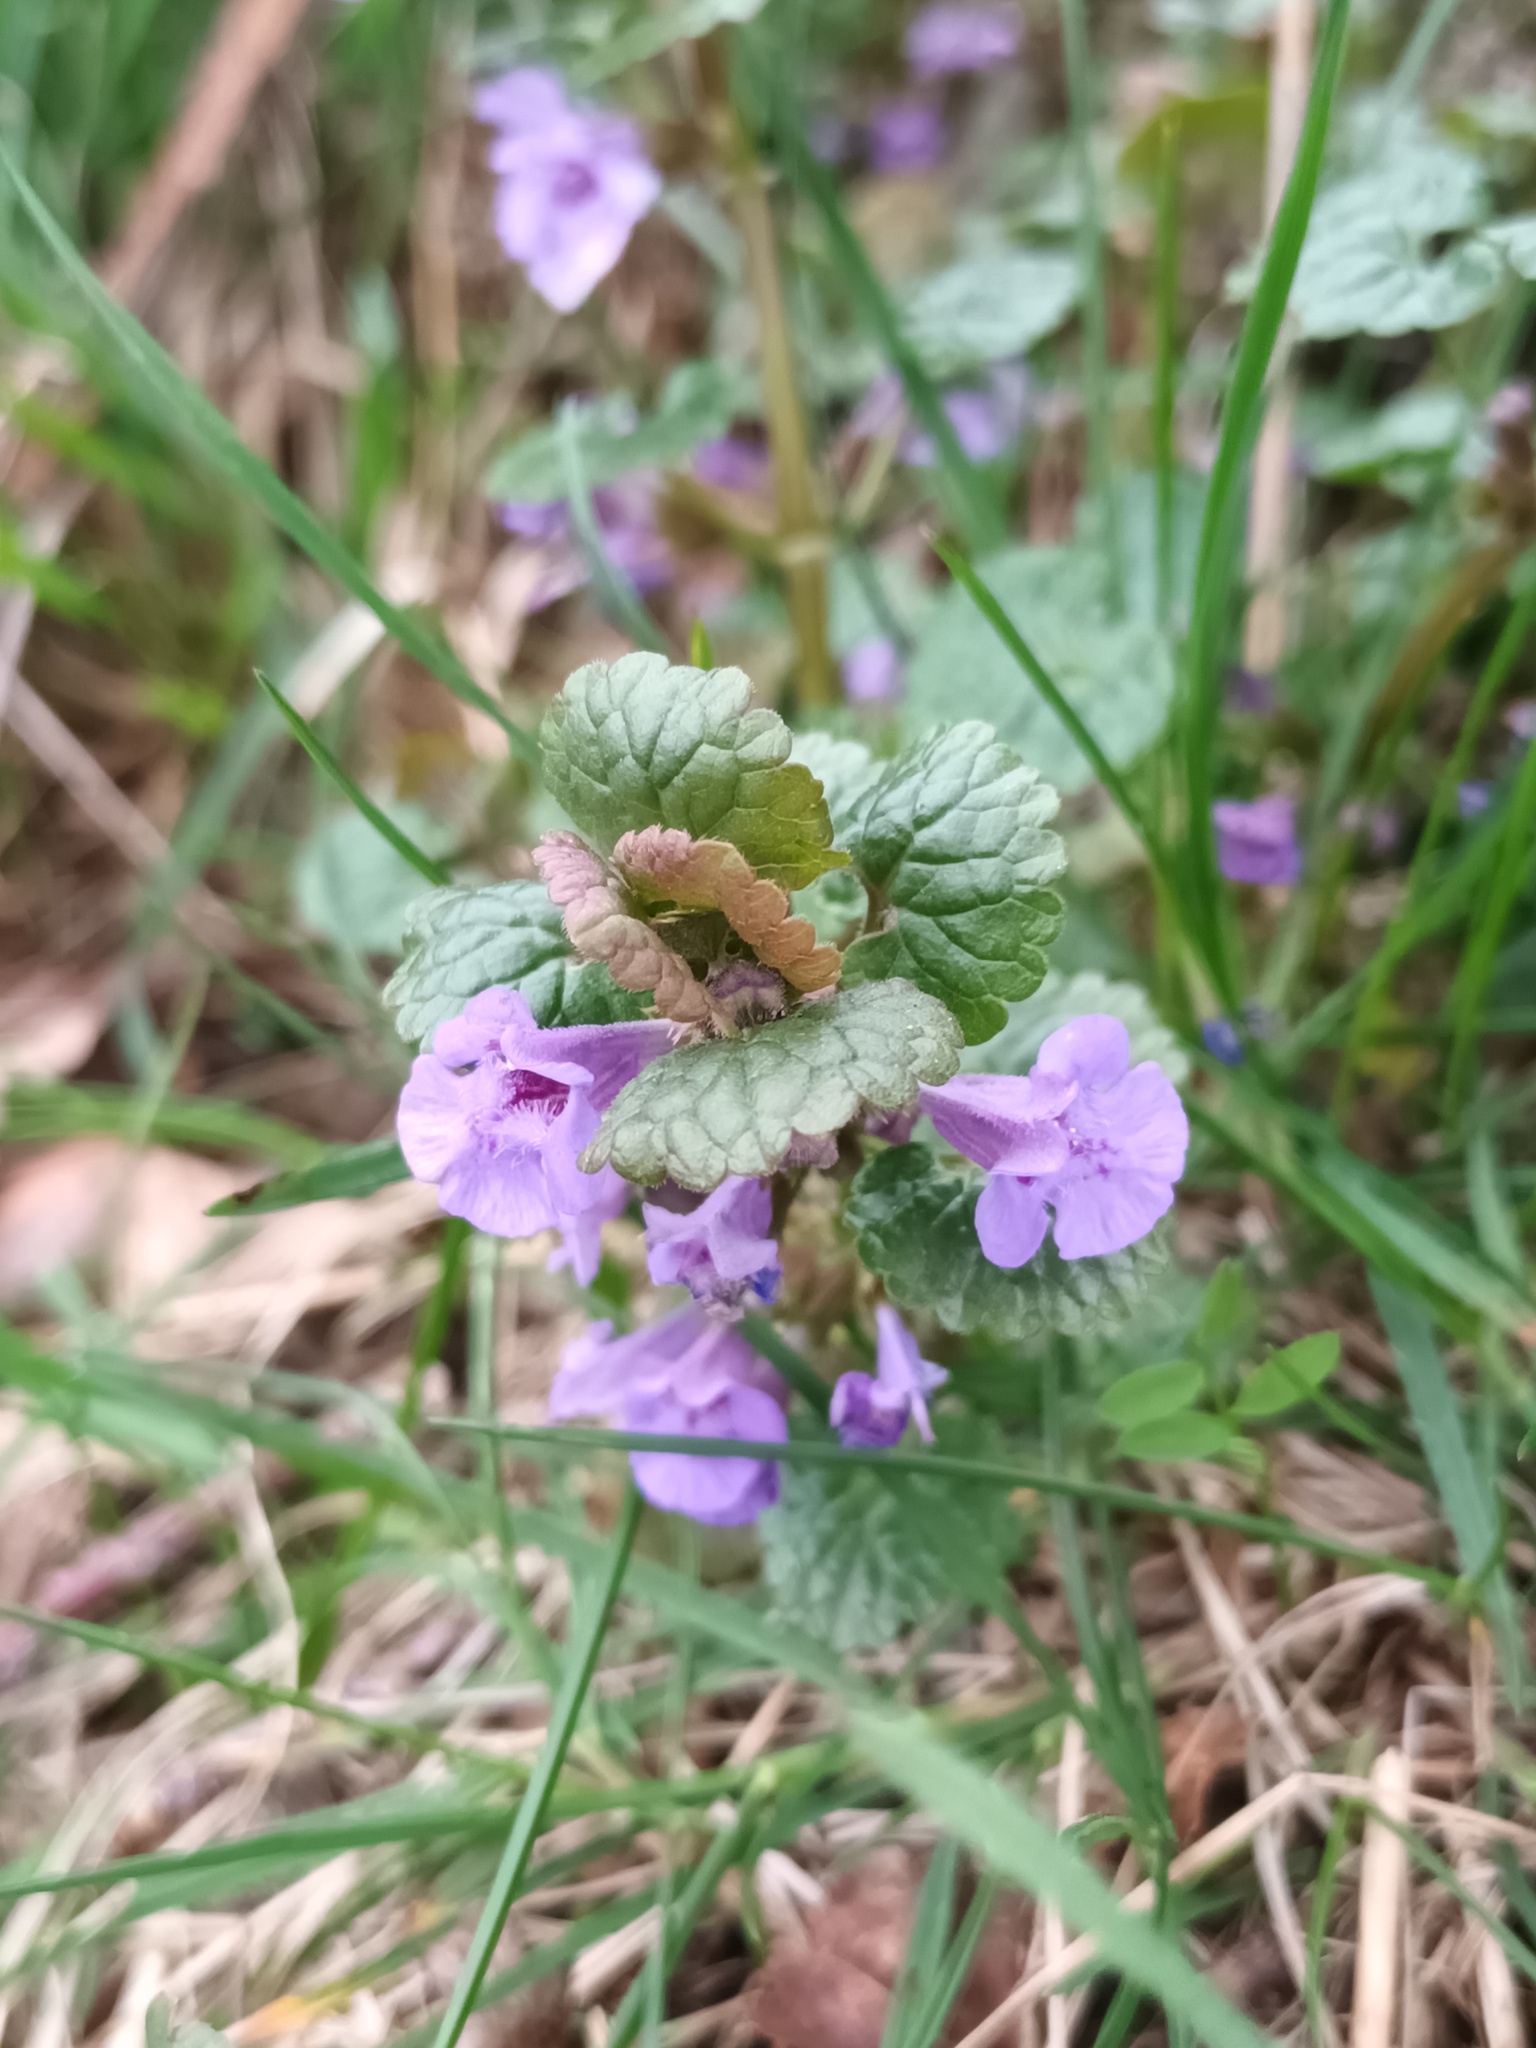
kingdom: Plantae
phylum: Tracheophyta
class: Magnoliopsida
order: Lamiales
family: Lamiaceae
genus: Glechoma
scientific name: Glechoma hederacea
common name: Ground ivy
